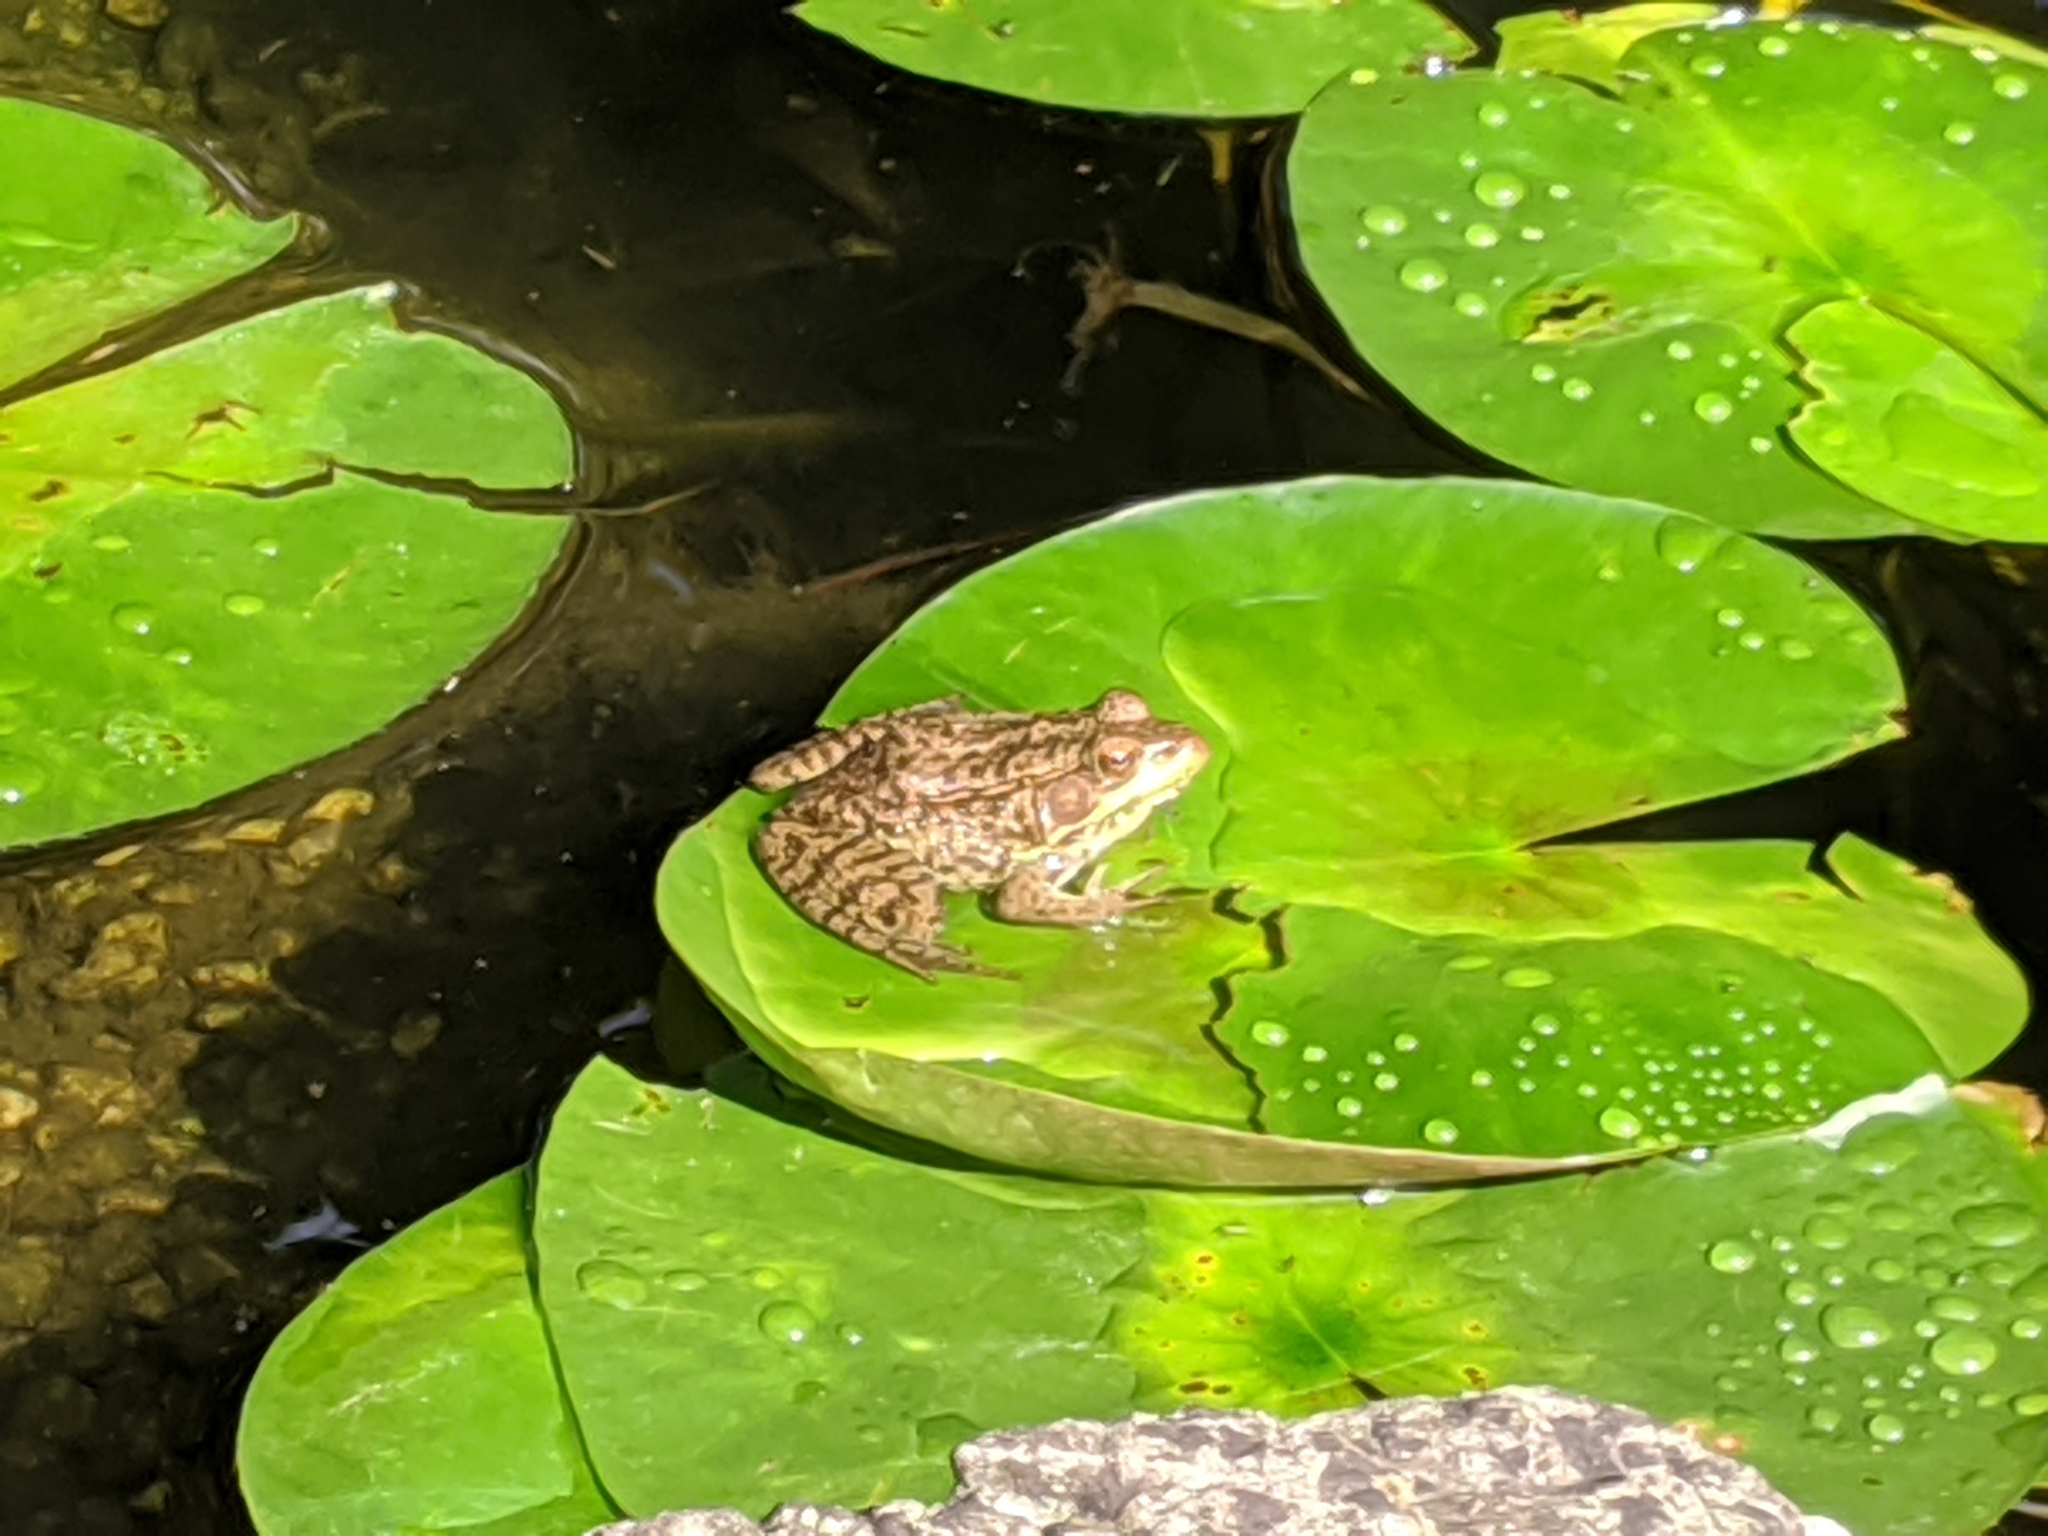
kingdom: Animalia
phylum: Chordata
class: Amphibia
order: Anura
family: Ranidae
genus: Lithobates
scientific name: Lithobates clamitans
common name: Green frog
